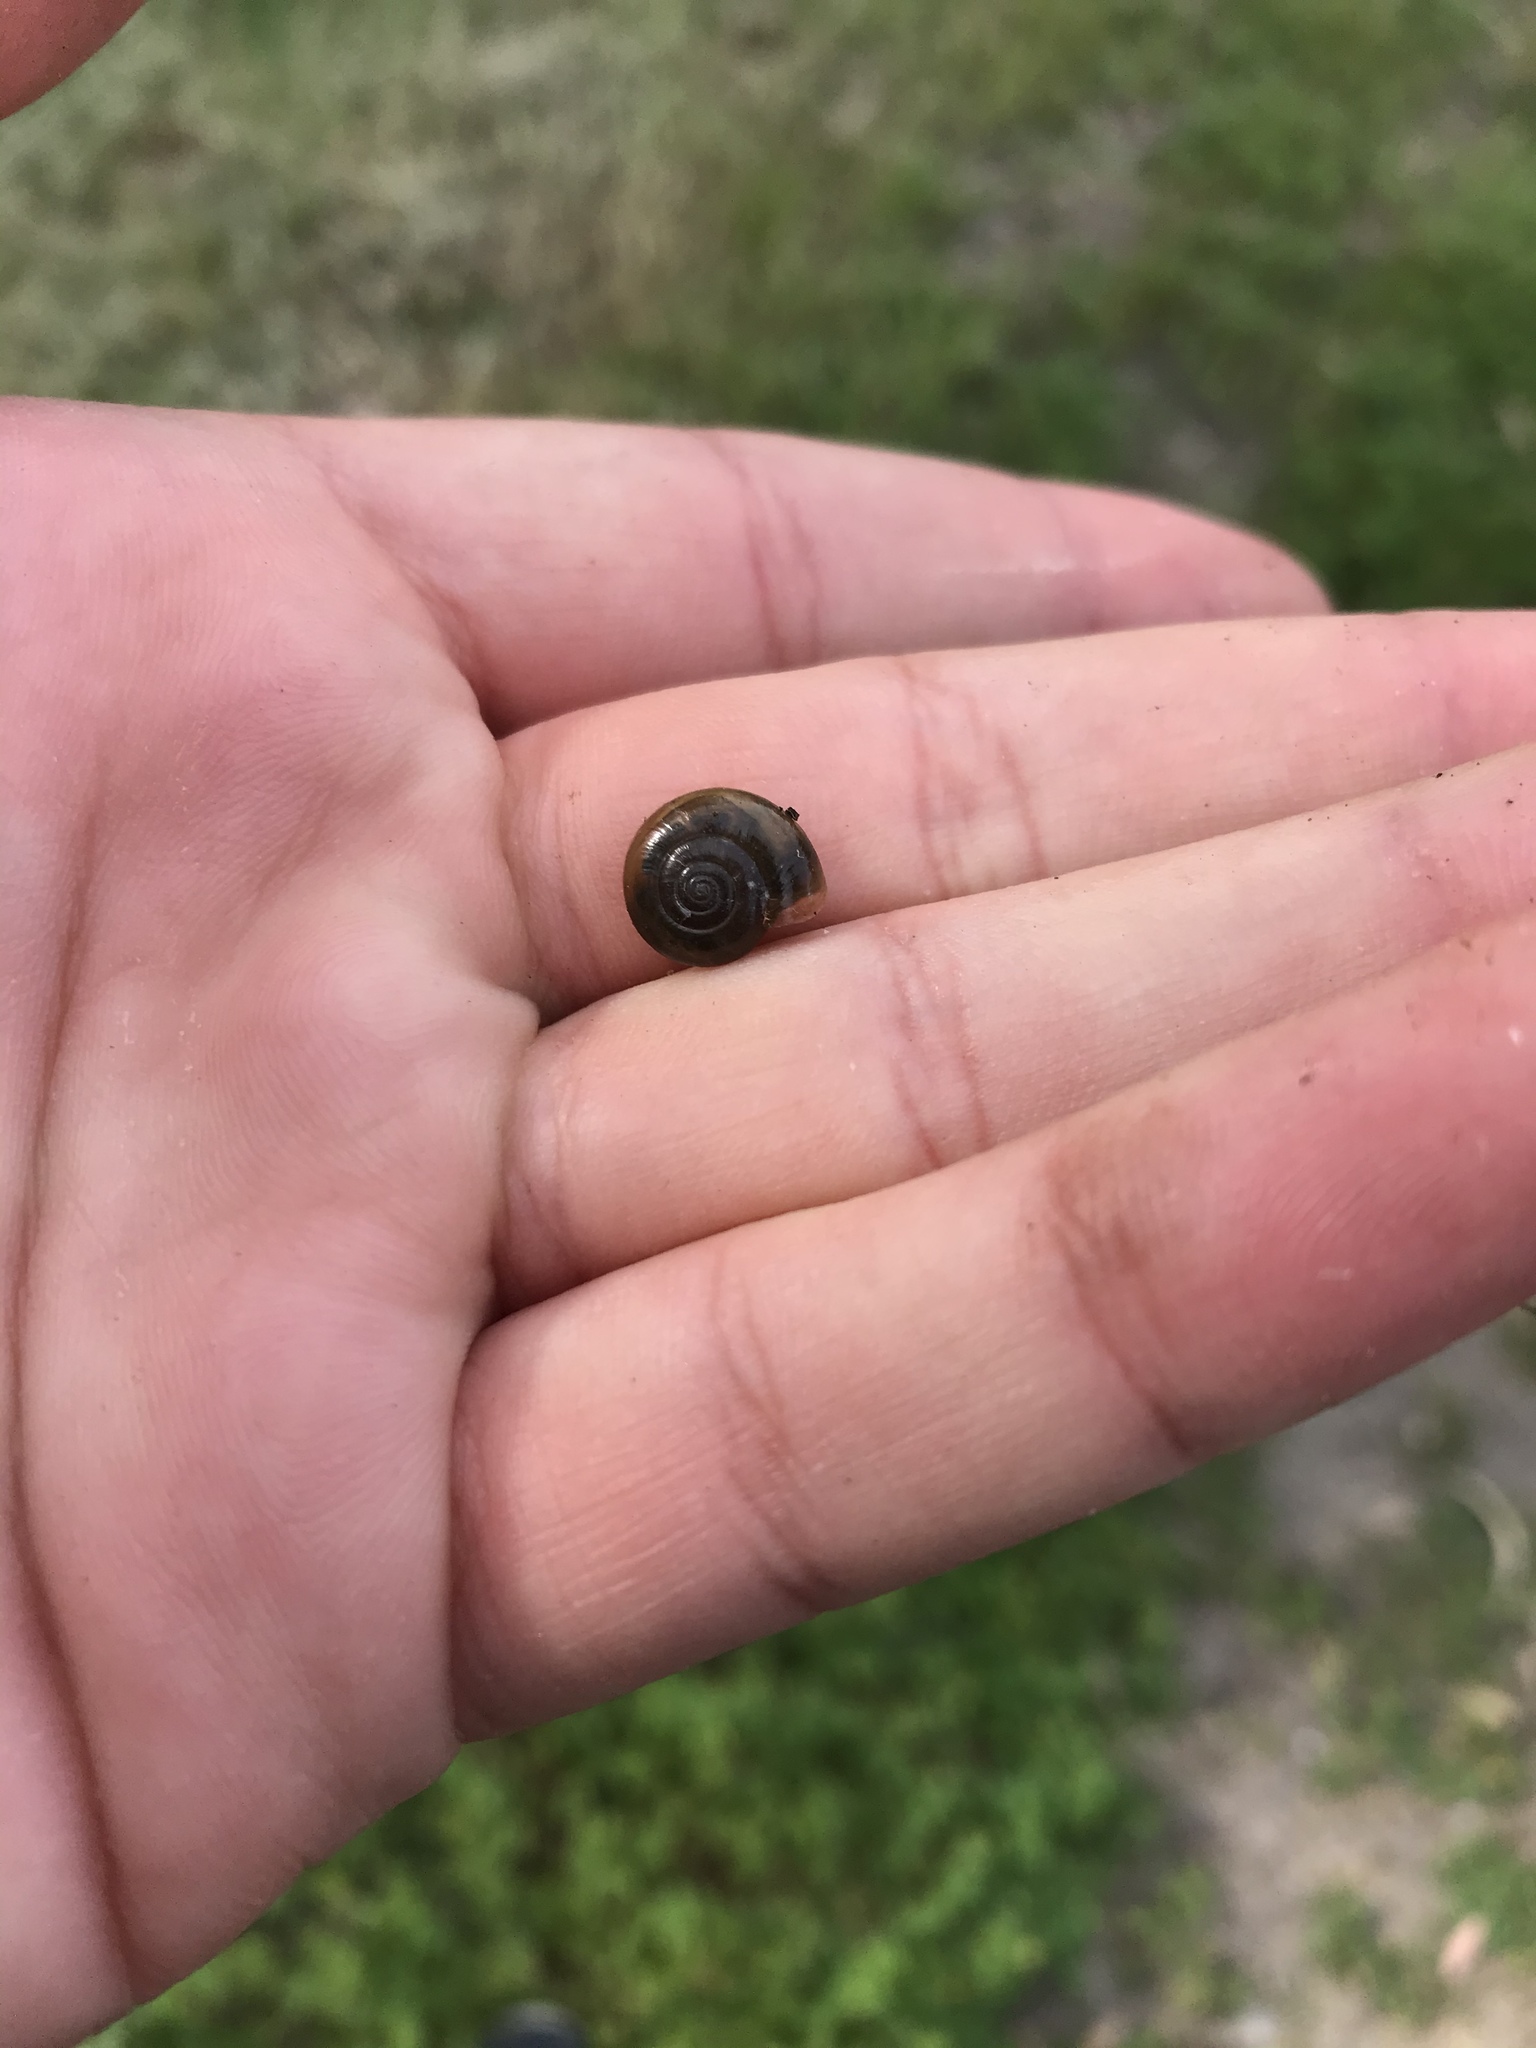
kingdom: Animalia
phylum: Mollusca
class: Gastropoda
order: Stylommatophora
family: Oxychilidae
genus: Oxychilus
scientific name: Oxychilus
